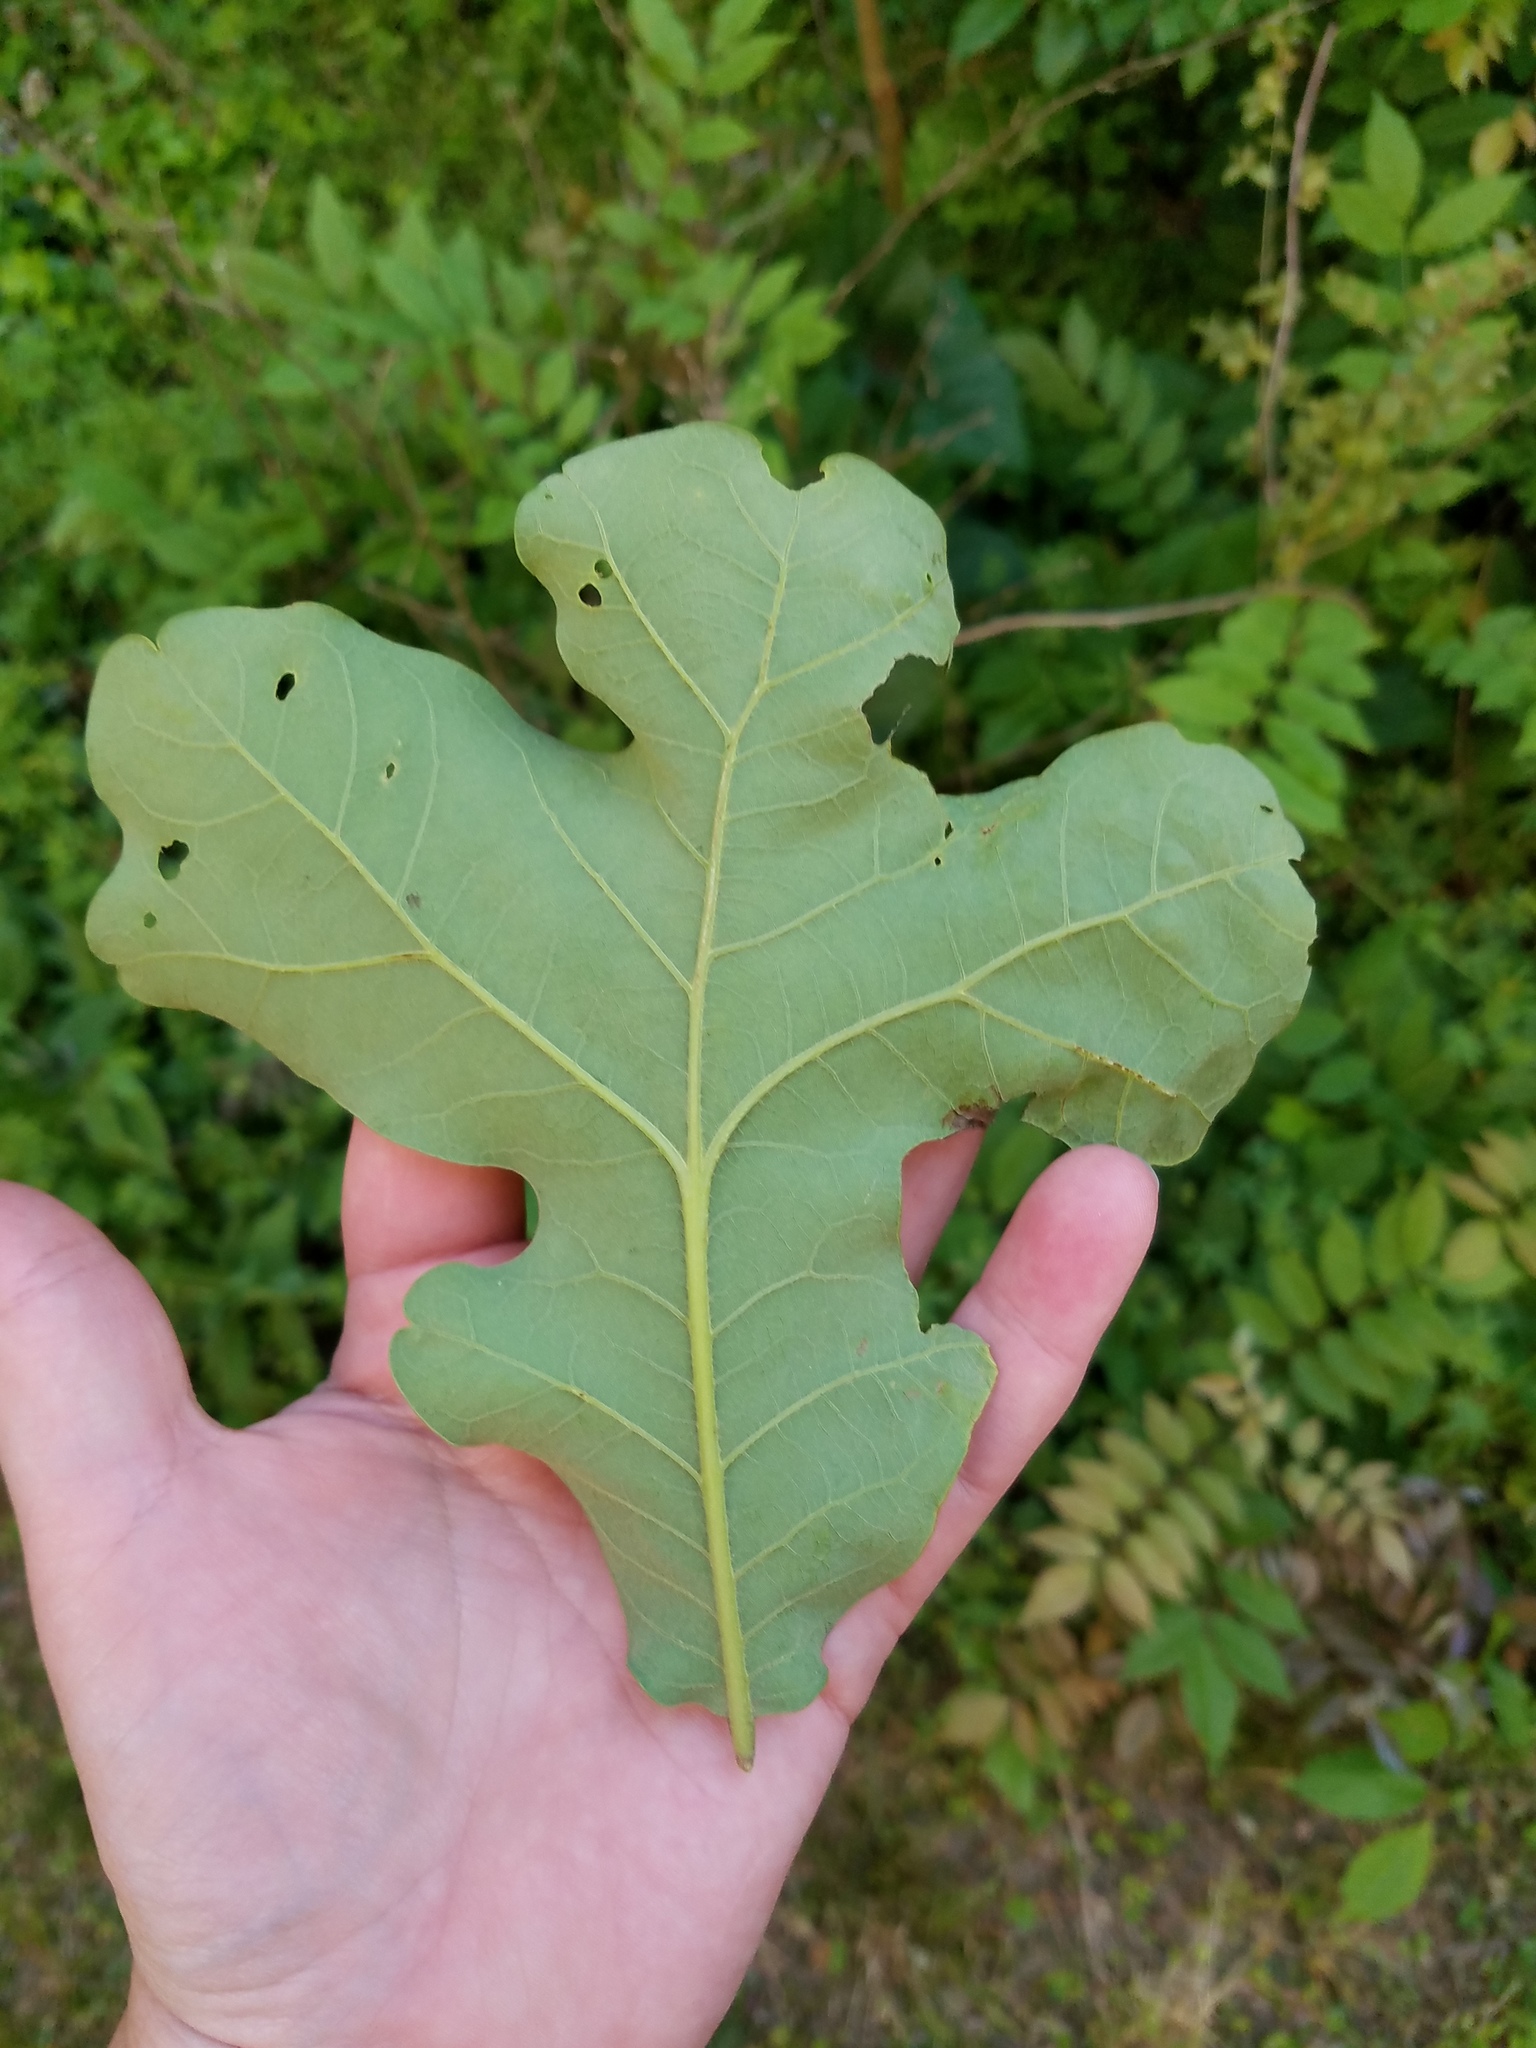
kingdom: Plantae
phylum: Tracheophyta
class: Magnoliopsida
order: Fagales
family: Fagaceae
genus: Quercus
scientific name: Quercus stellata
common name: Post oak
